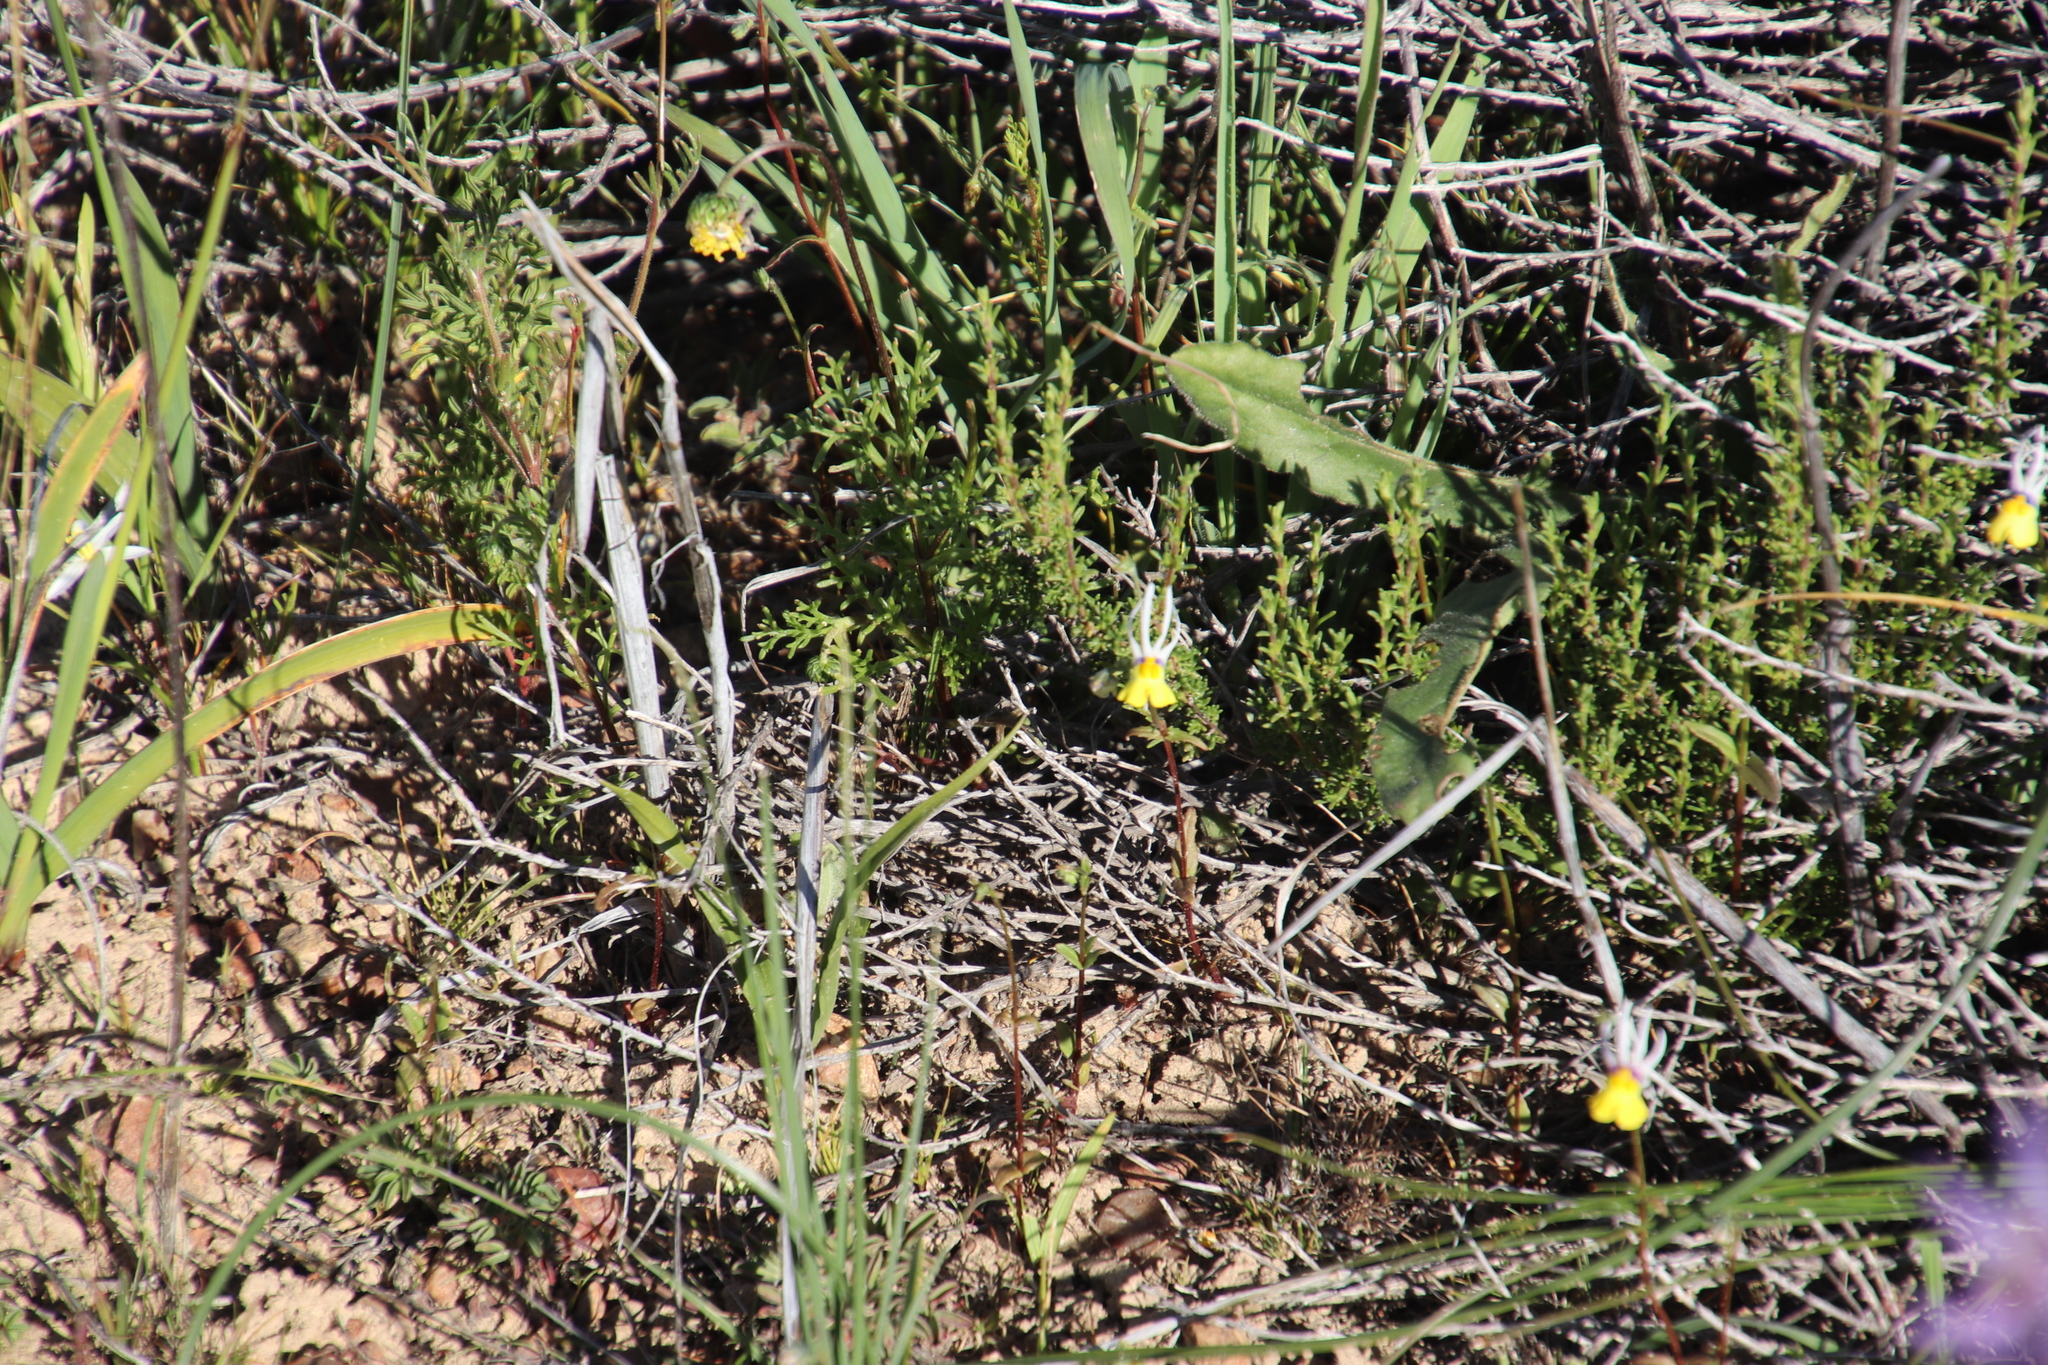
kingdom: Plantae
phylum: Tracheophyta
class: Magnoliopsida
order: Lamiales
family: Scrophulariaceae
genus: Nemesia
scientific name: Nemesia cheiranthus
